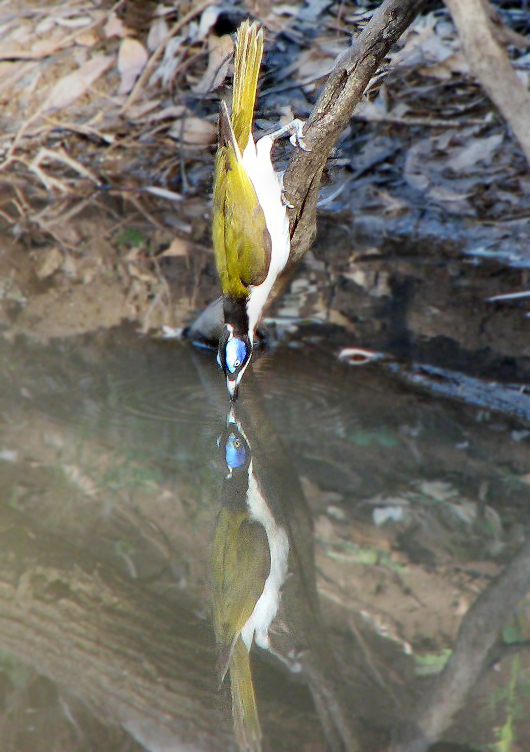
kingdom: Animalia
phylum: Chordata
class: Aves
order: Passeriformes
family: Meliphagidae
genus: Entomyzon
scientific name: Entomyzon cyanotis
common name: Blue-faced honeyeater
